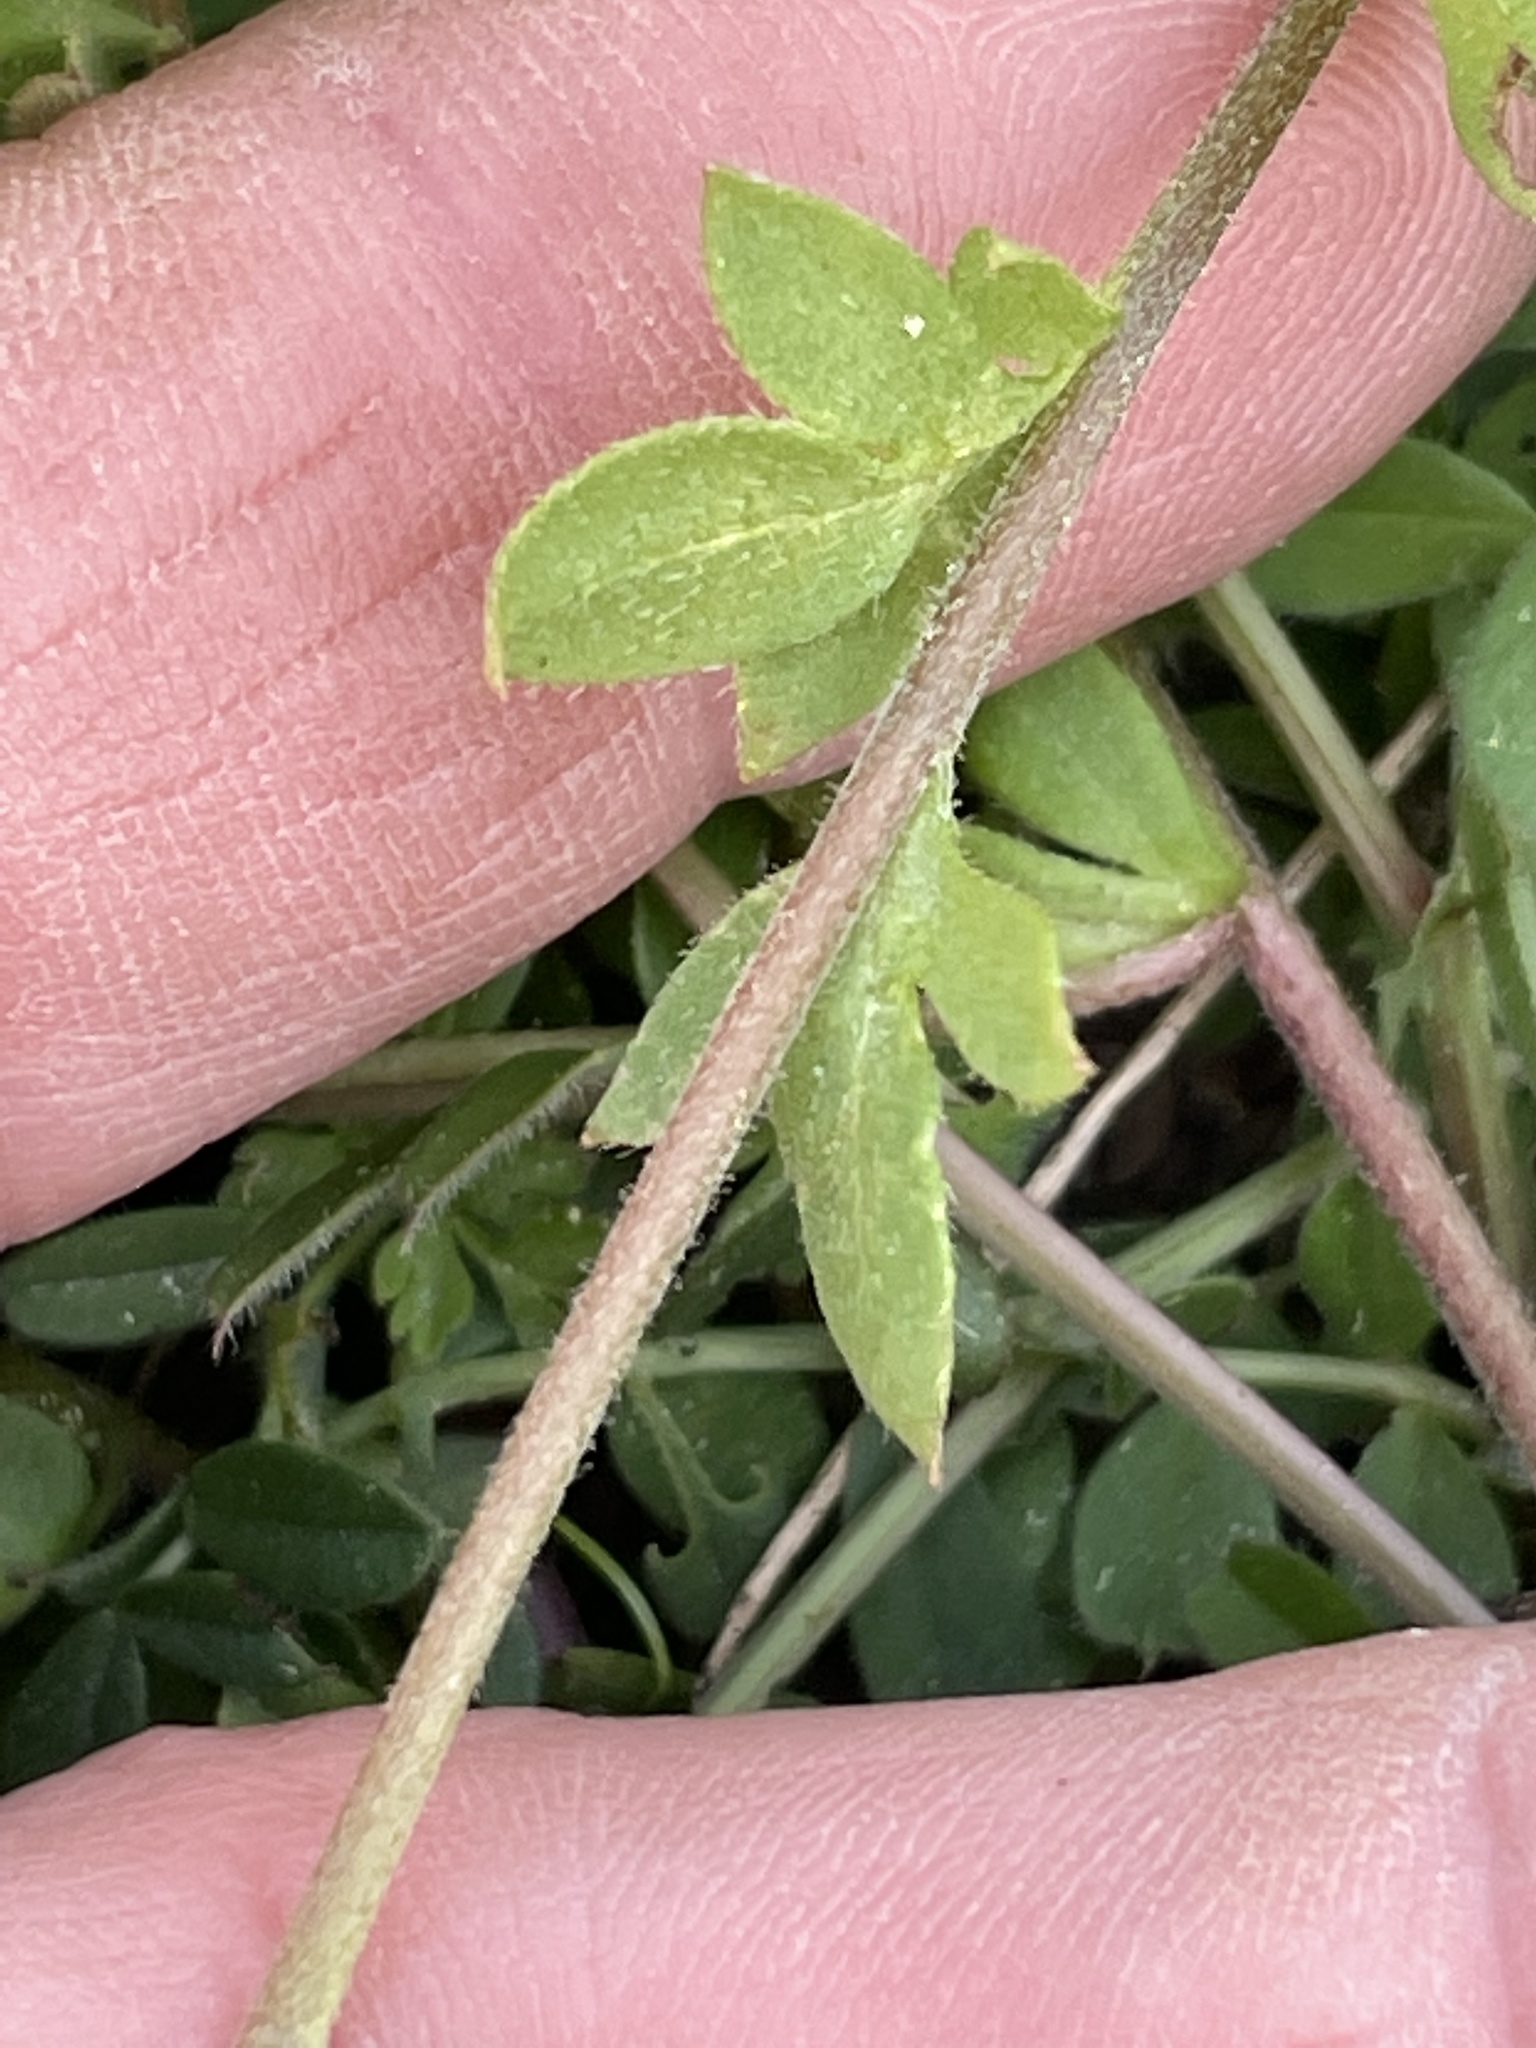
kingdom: Plantae
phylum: Tracheophyta
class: Magnoliopsida
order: Boraginales
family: Hydrophyllaceae
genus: Phacelia
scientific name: Phacelia dubia
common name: Appalachian phacelia
